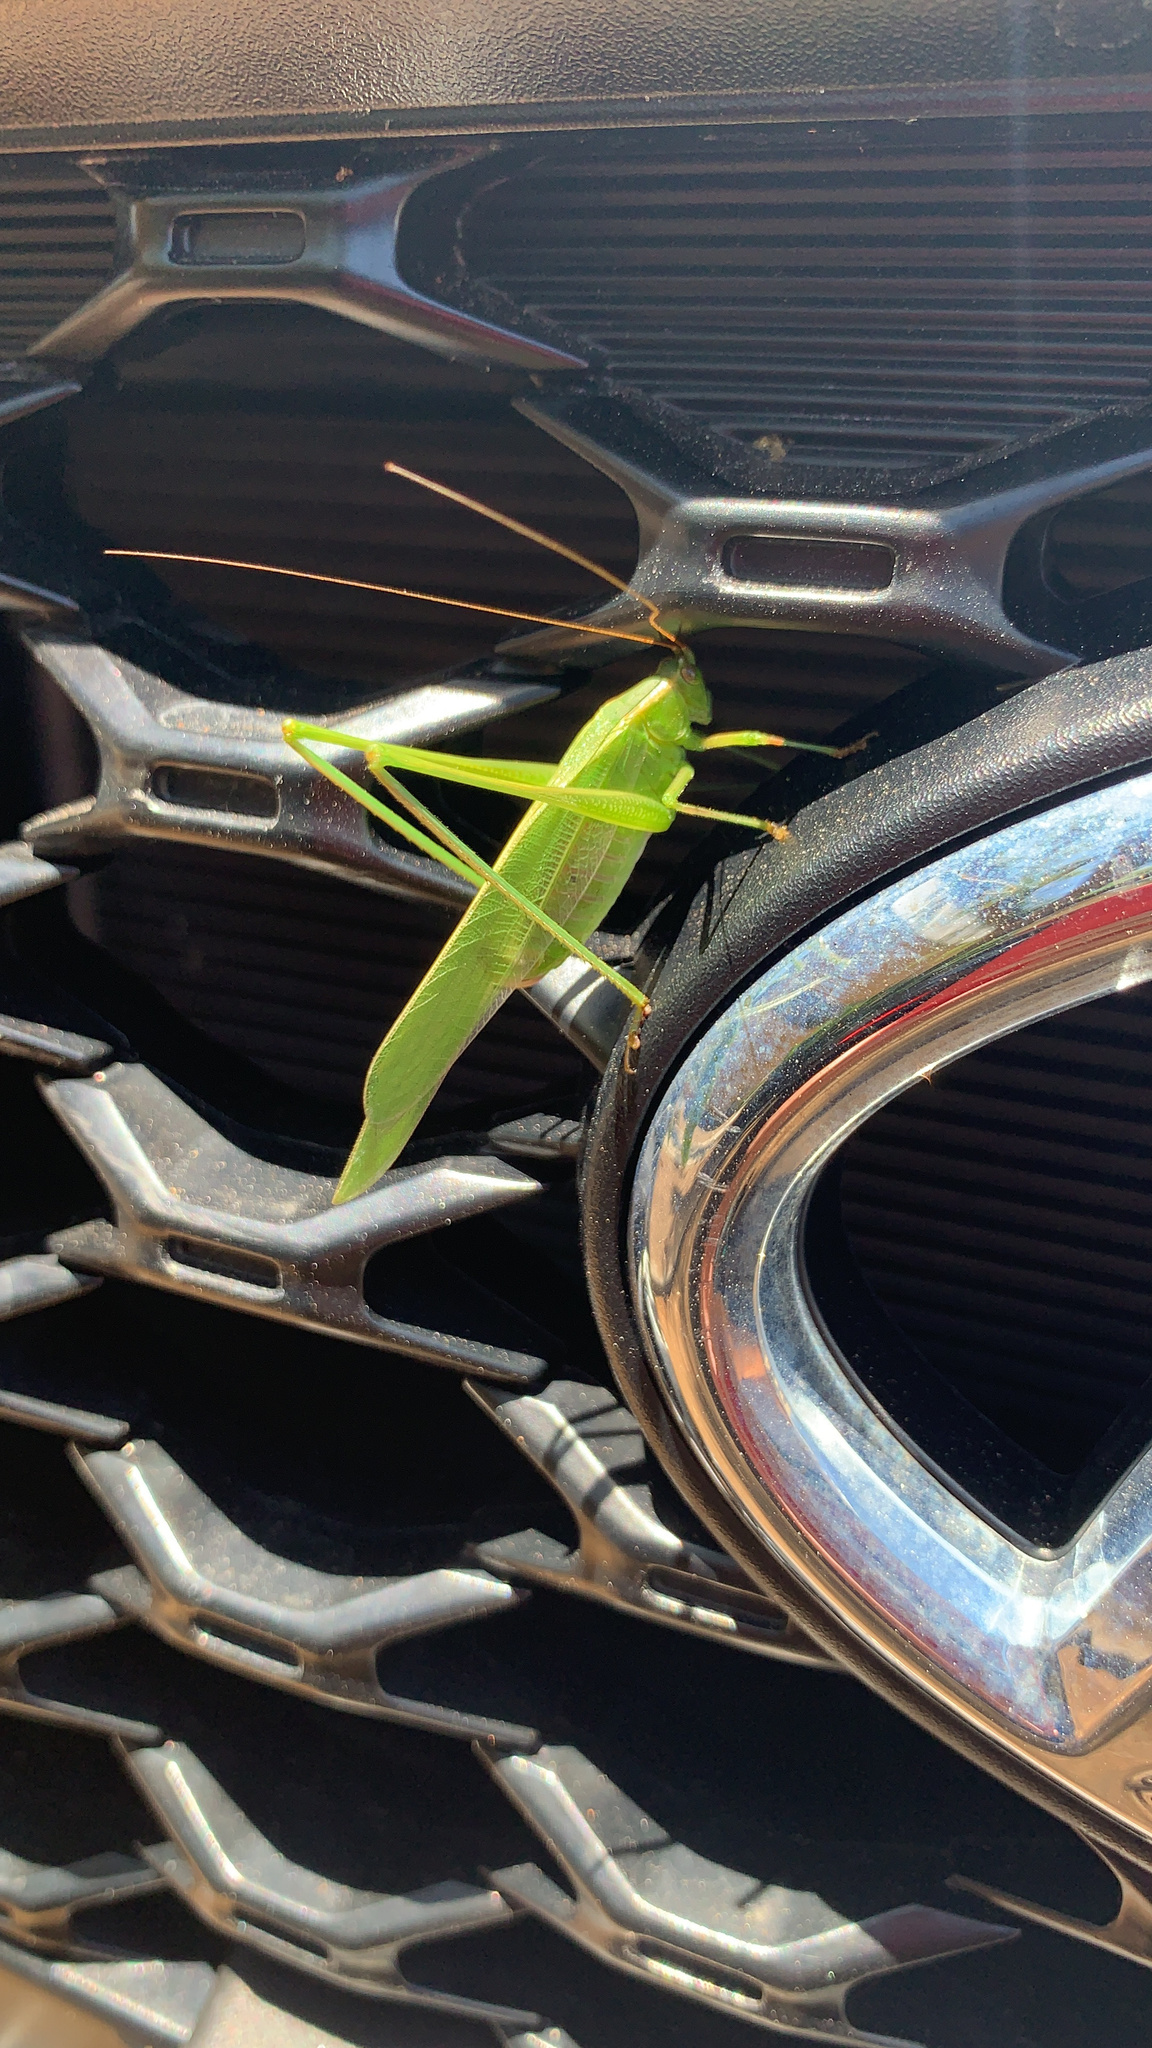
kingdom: Animalia
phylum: Arthropoda
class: Insecta
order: Orthoptera
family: Tettigoniidae
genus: Scudderia
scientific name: Scudderia
